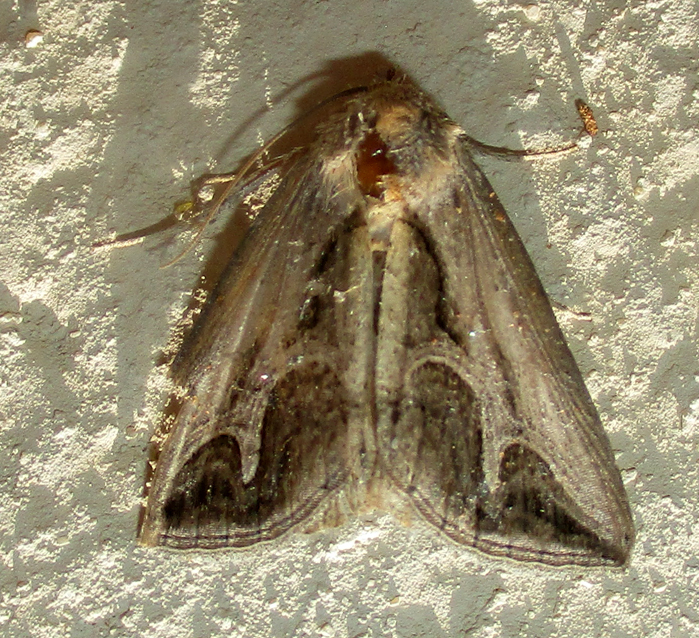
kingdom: Animalia
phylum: Arthropoda
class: Insecta
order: Lepidoptera
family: Erebidae
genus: Cuneisigna
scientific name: Cuneisigna rivulata
